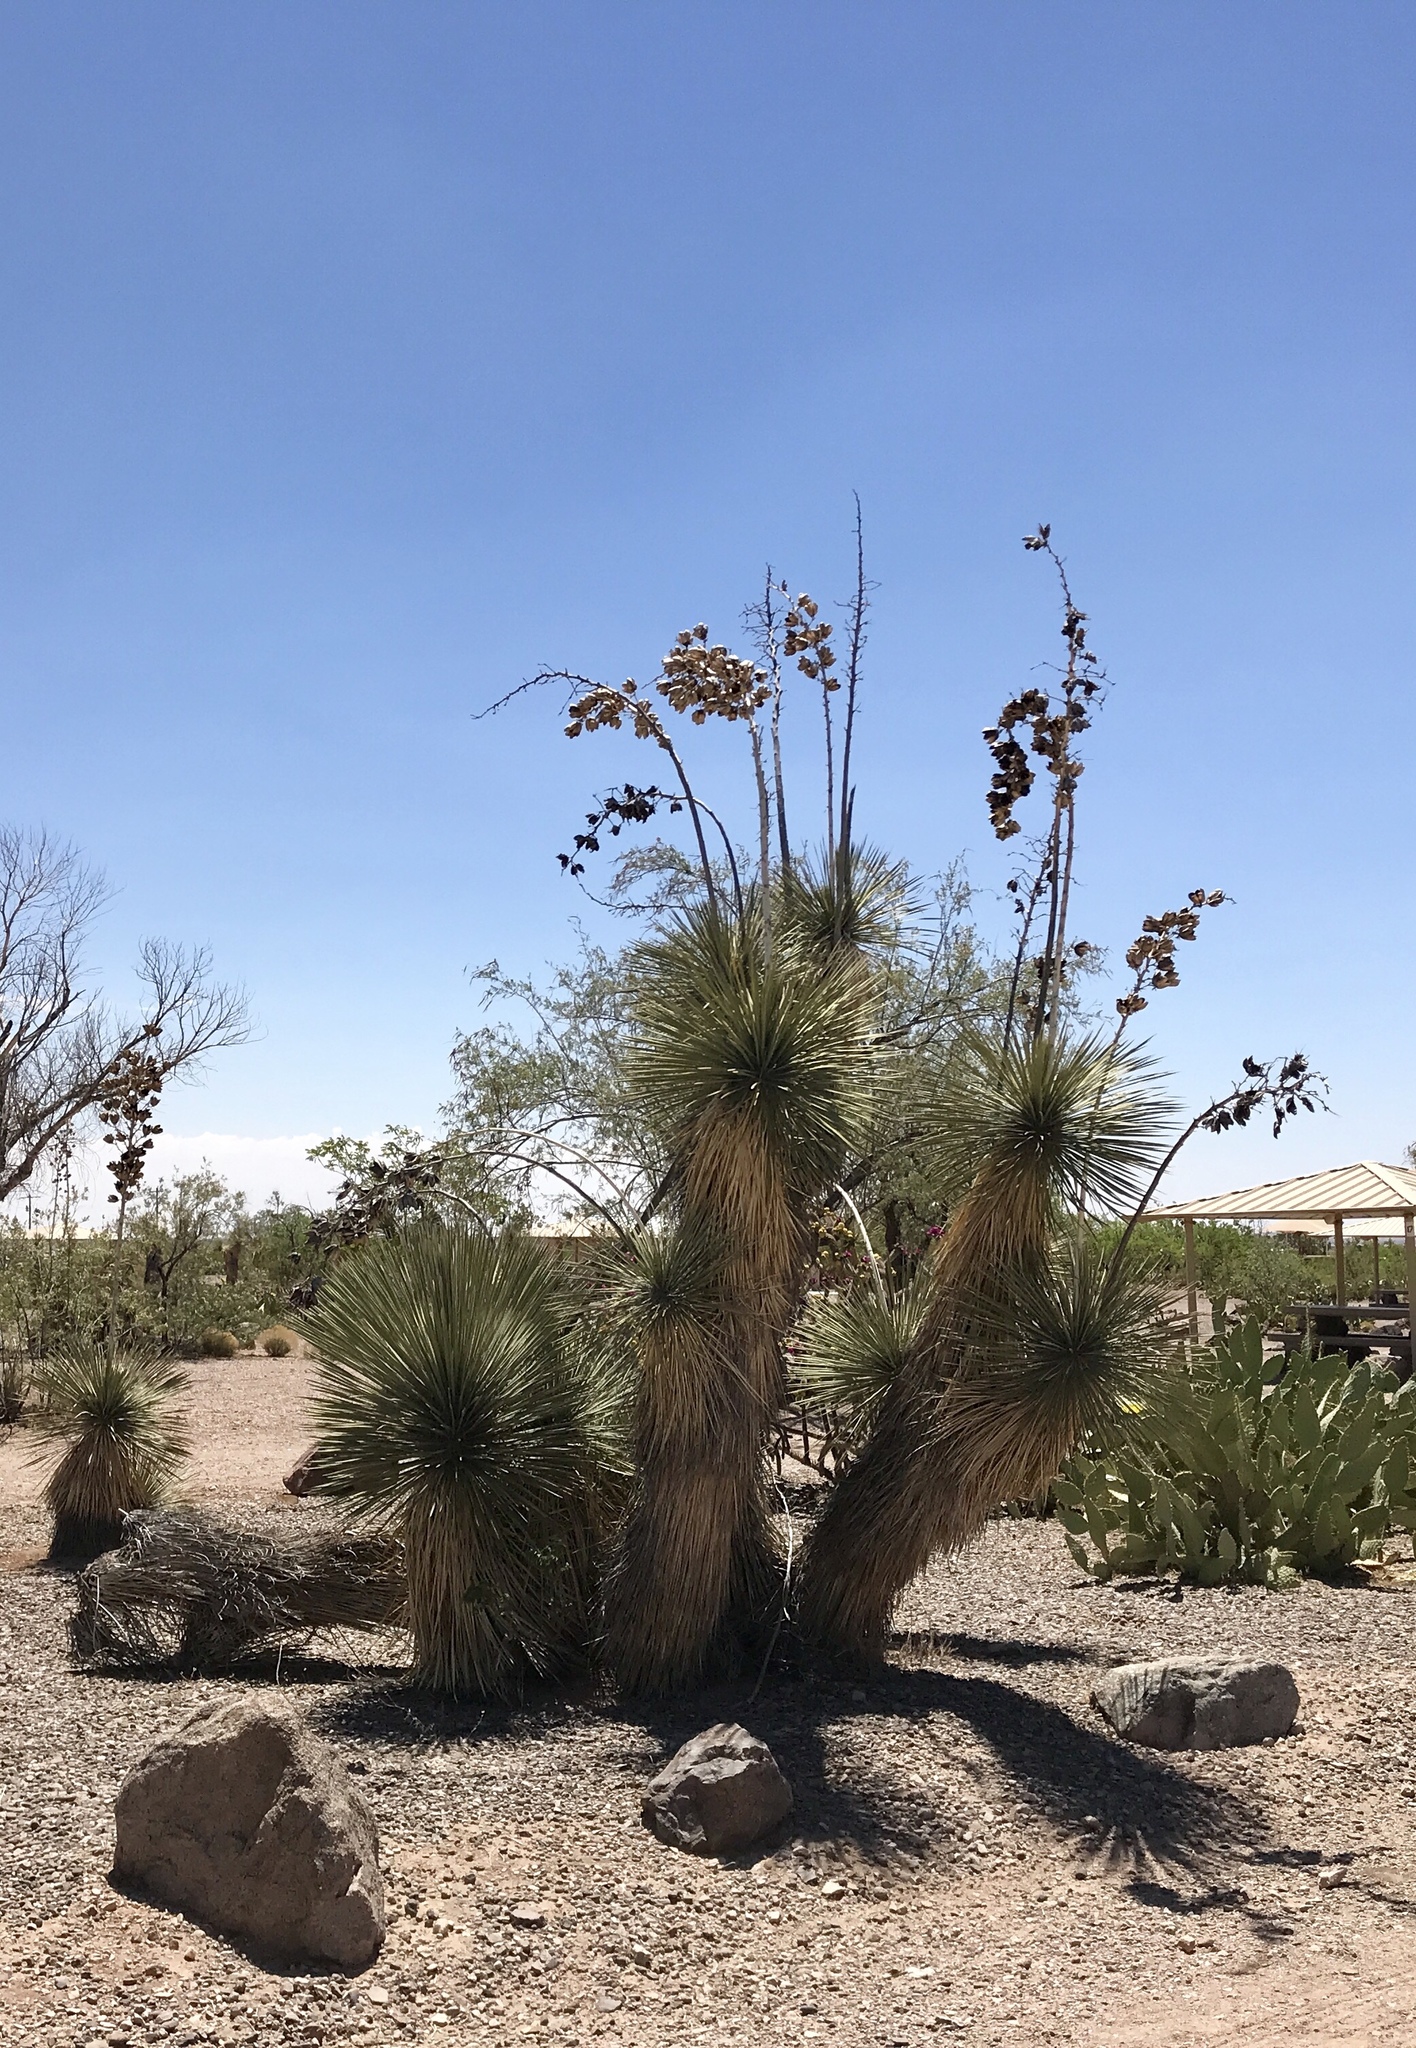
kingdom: Plantae
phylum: Tracheophyta
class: Liliopsida
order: Asparagales
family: Asparagaceae
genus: Yucca
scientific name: Yucca elata
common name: Palmella
